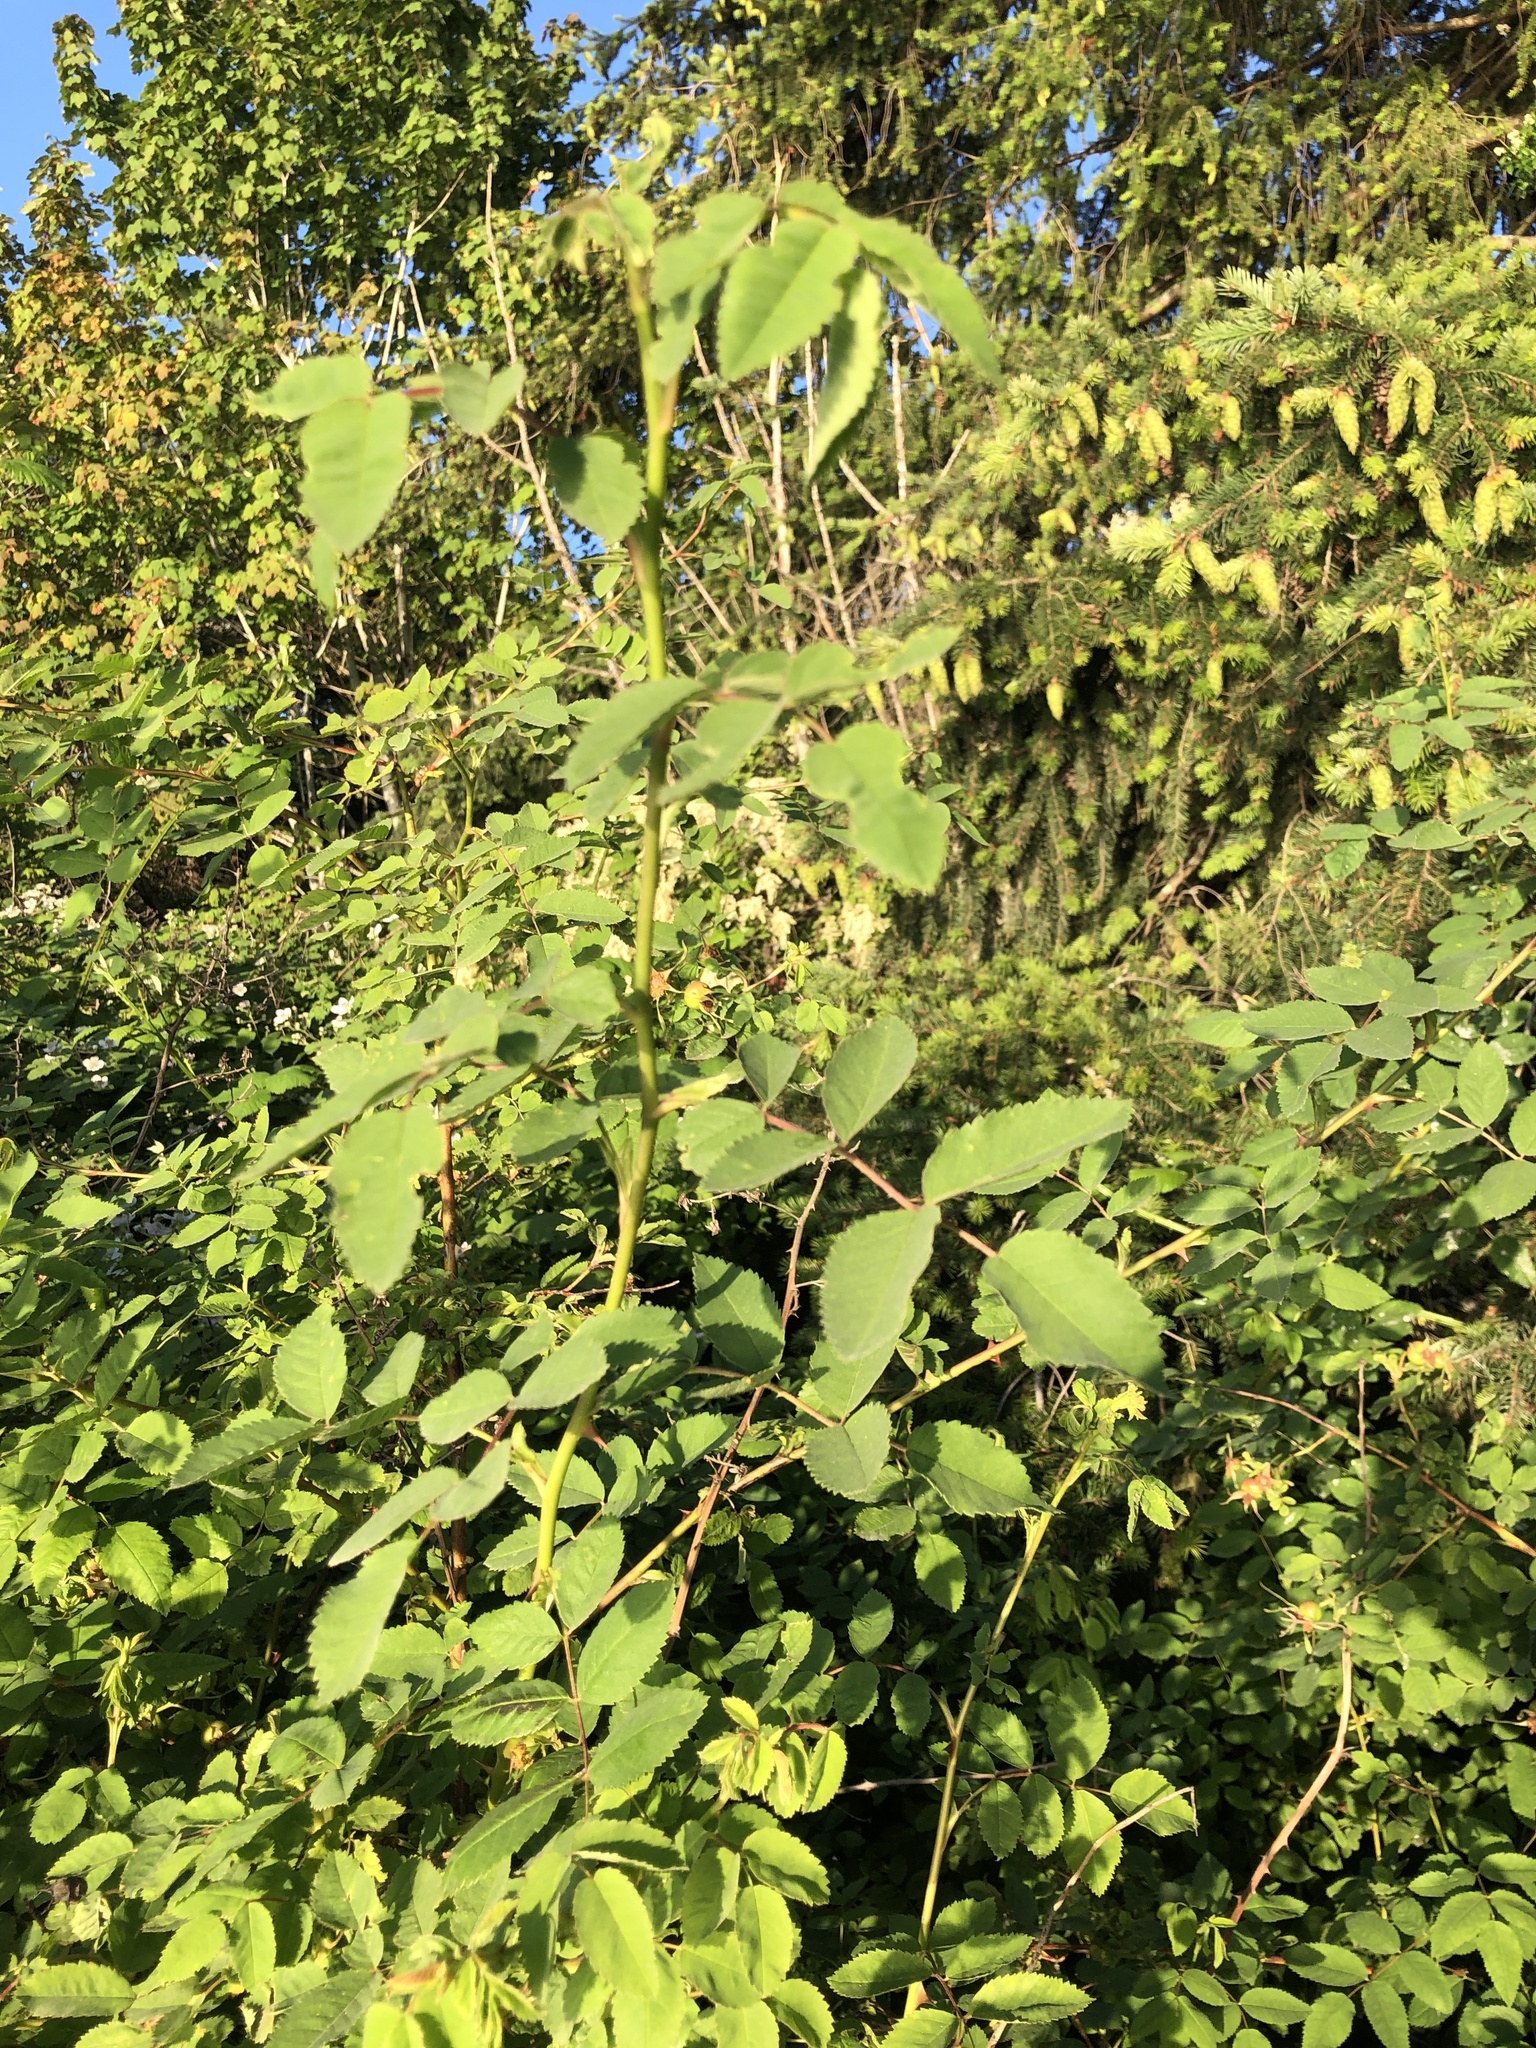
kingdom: Plantae
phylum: Tracheophyta
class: Magnoliopsida
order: Rosales
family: Rosaceae
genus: Rosa
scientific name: Rosa nutkana
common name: Nootka rose
